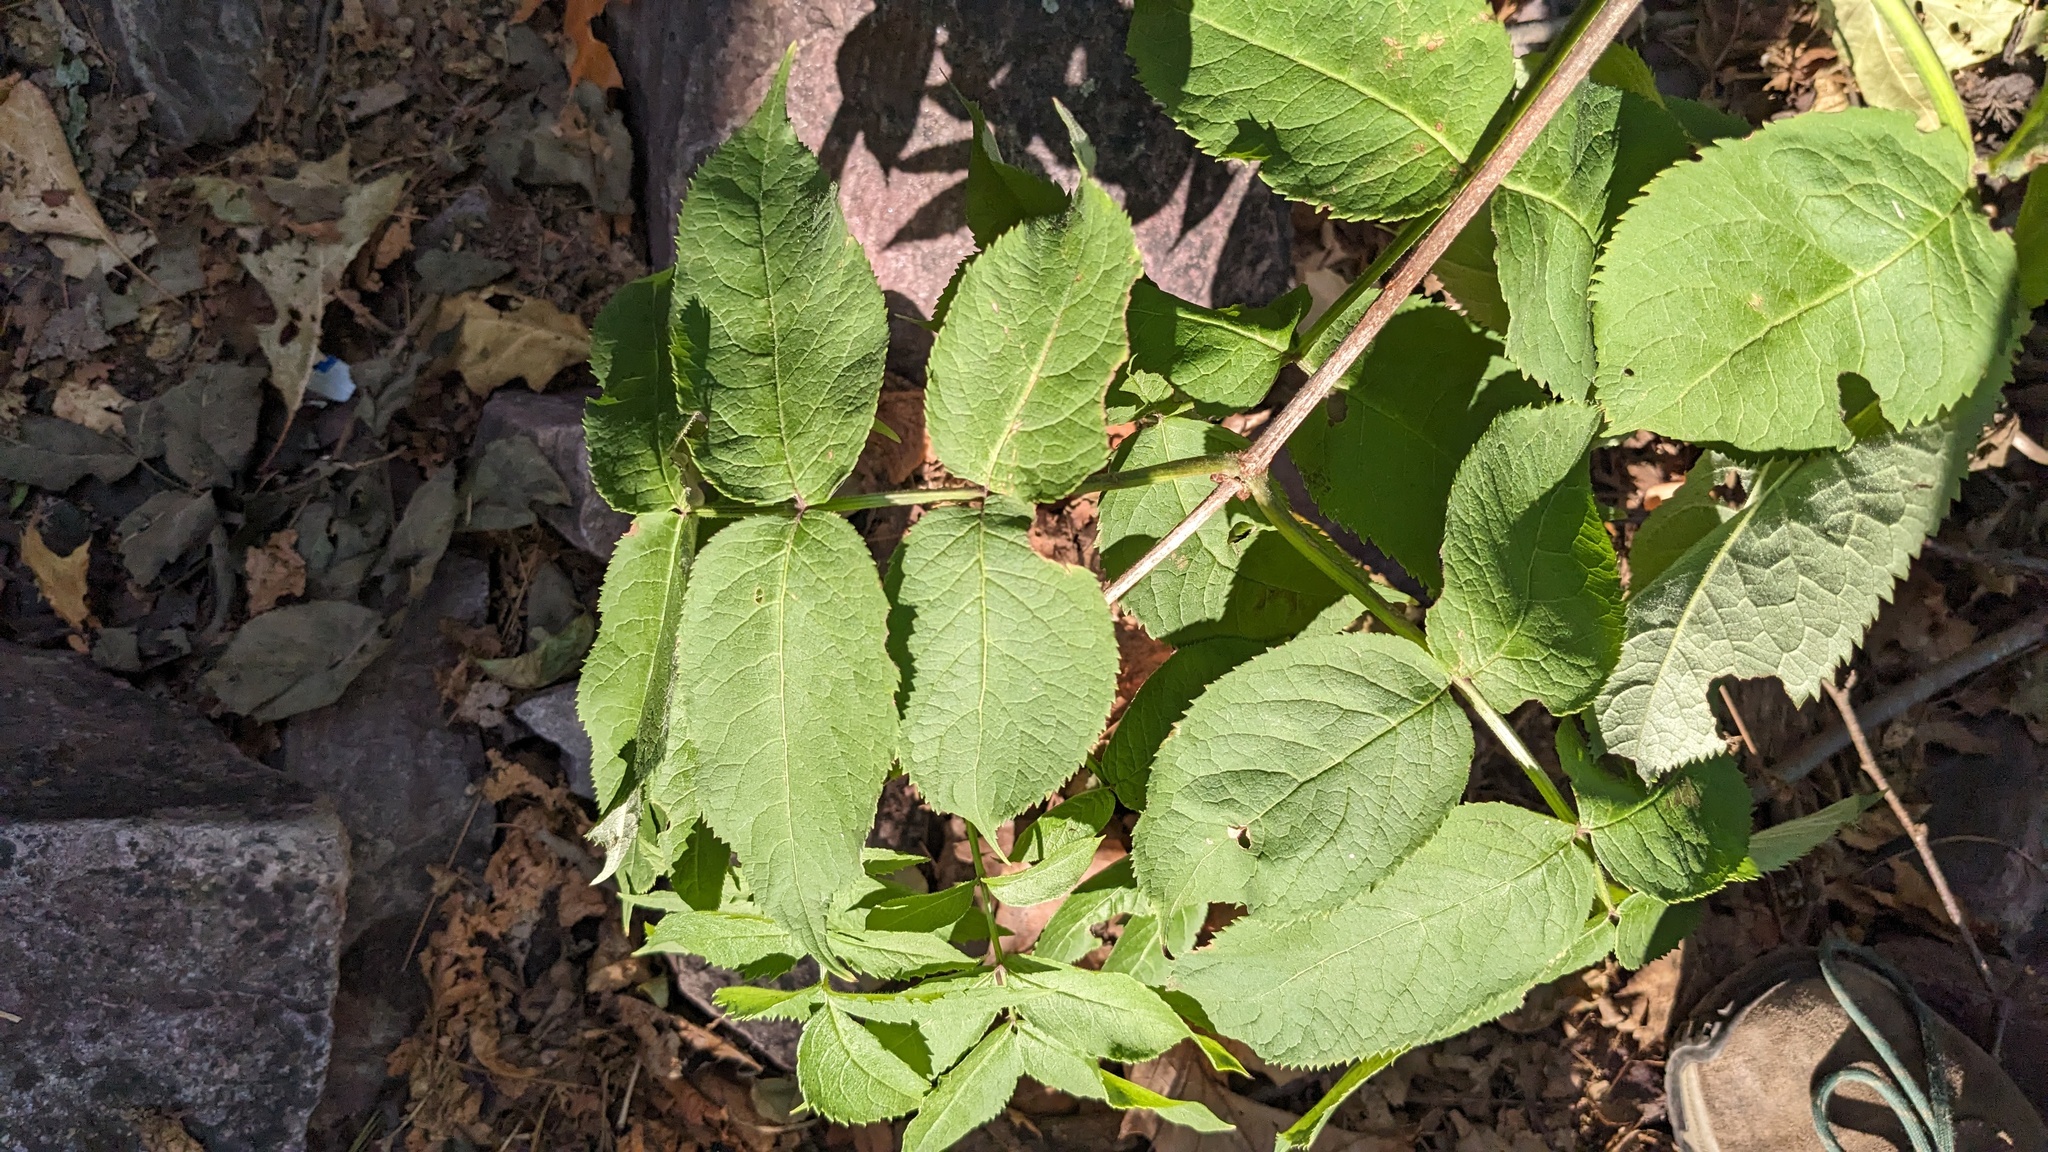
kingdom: Plantae
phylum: Tracheophyta
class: Magnoliopsida
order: Dipsacales
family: Viburnaceae
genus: Sambucus
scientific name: Sambucus racemosa
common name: Red-berried elder
